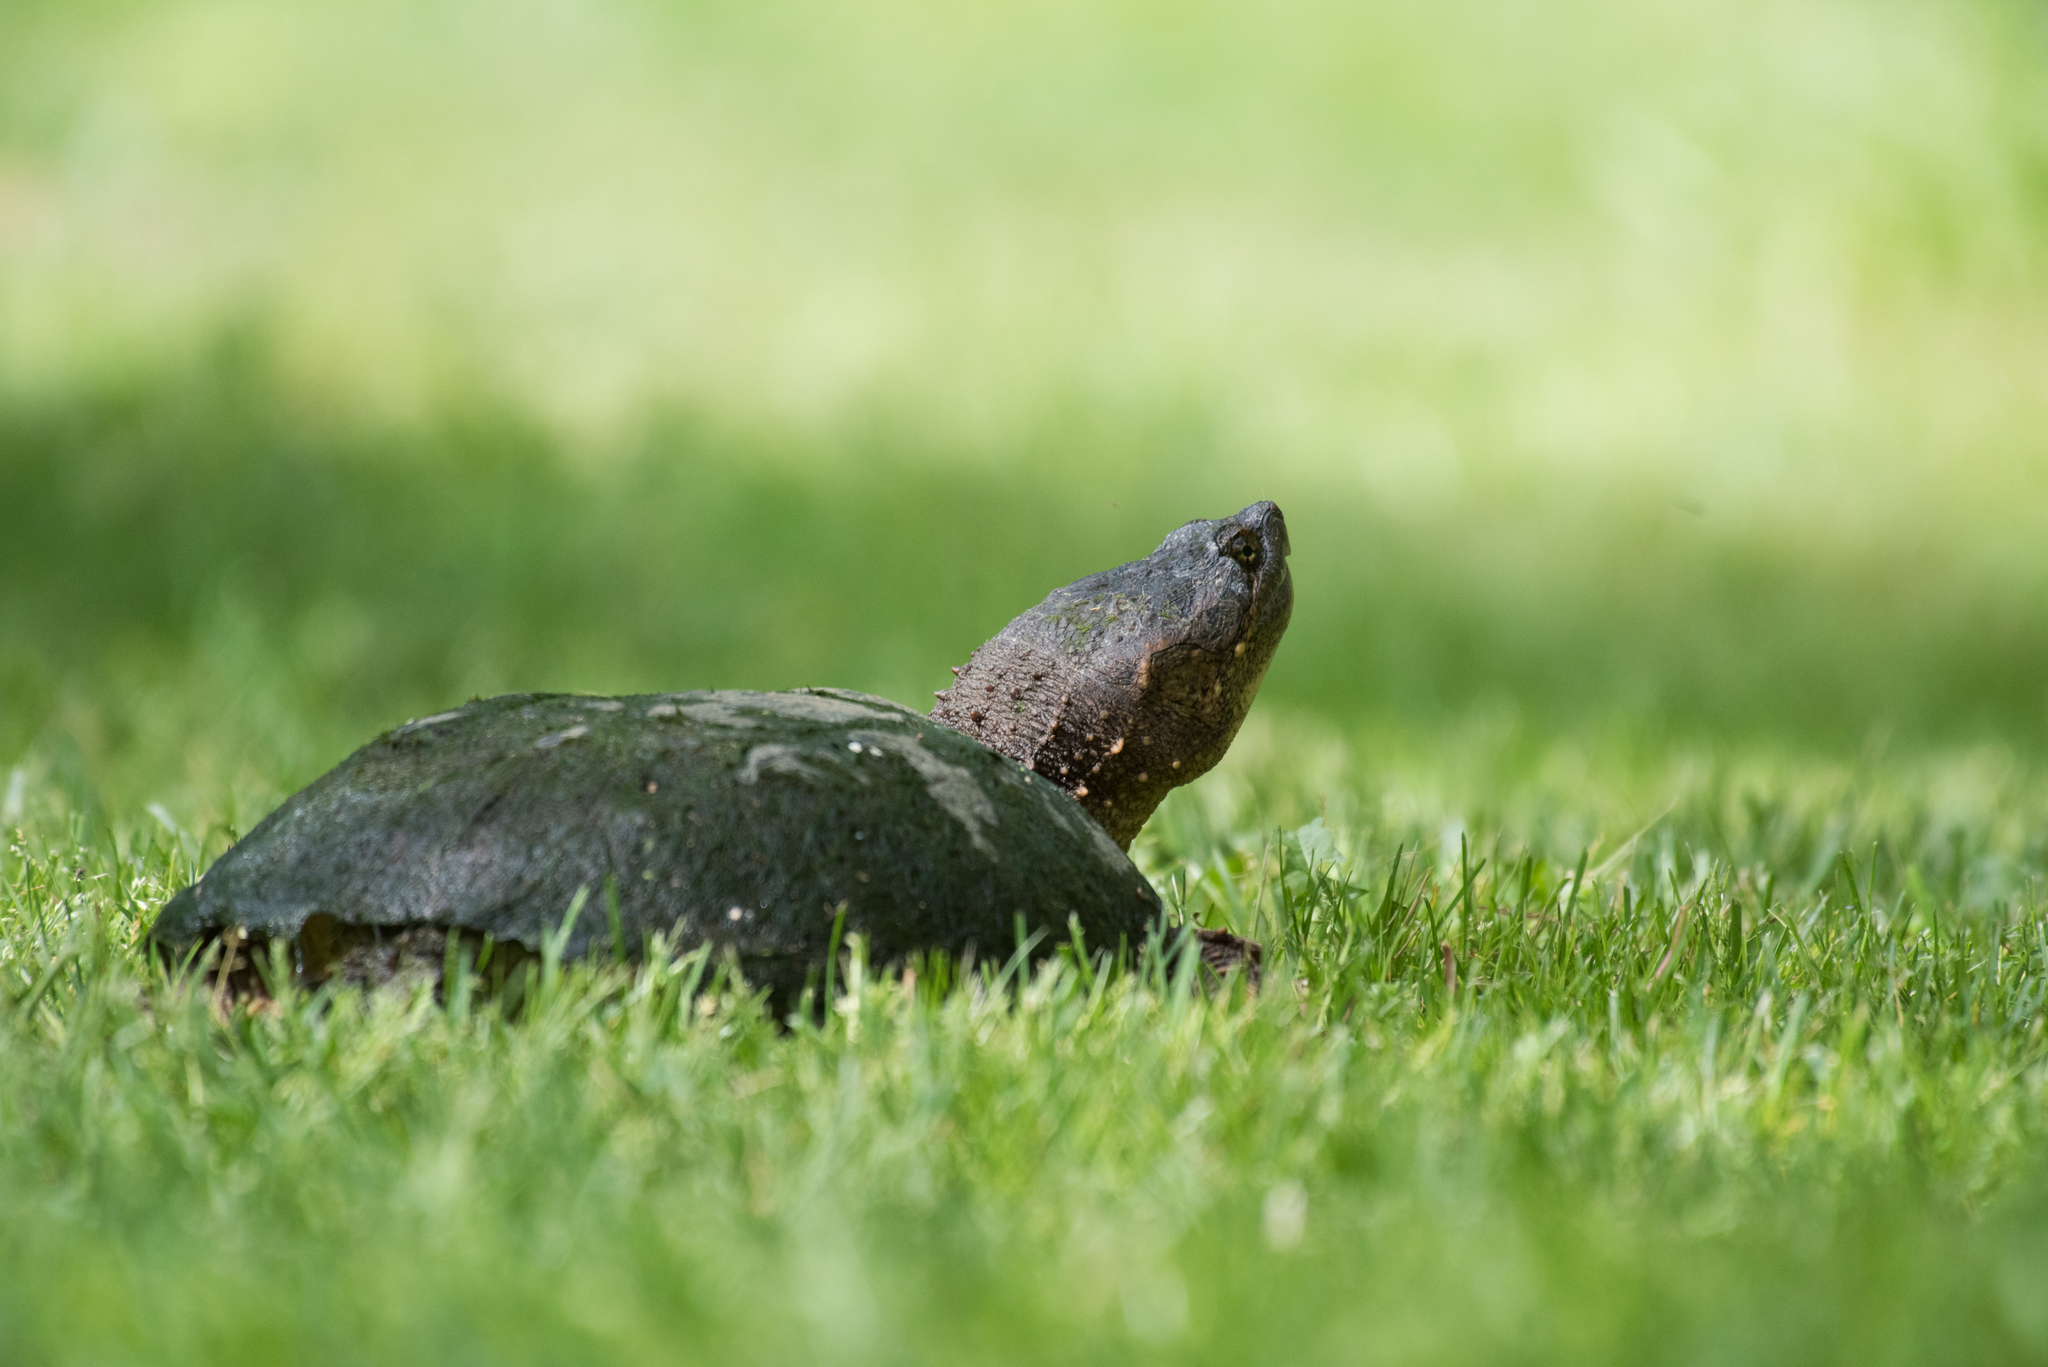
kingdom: Animalia
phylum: Chordata
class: Testudines
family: Chelydridae
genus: Chelydra
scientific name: Chelydra serpentina
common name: Common snapping turtle
